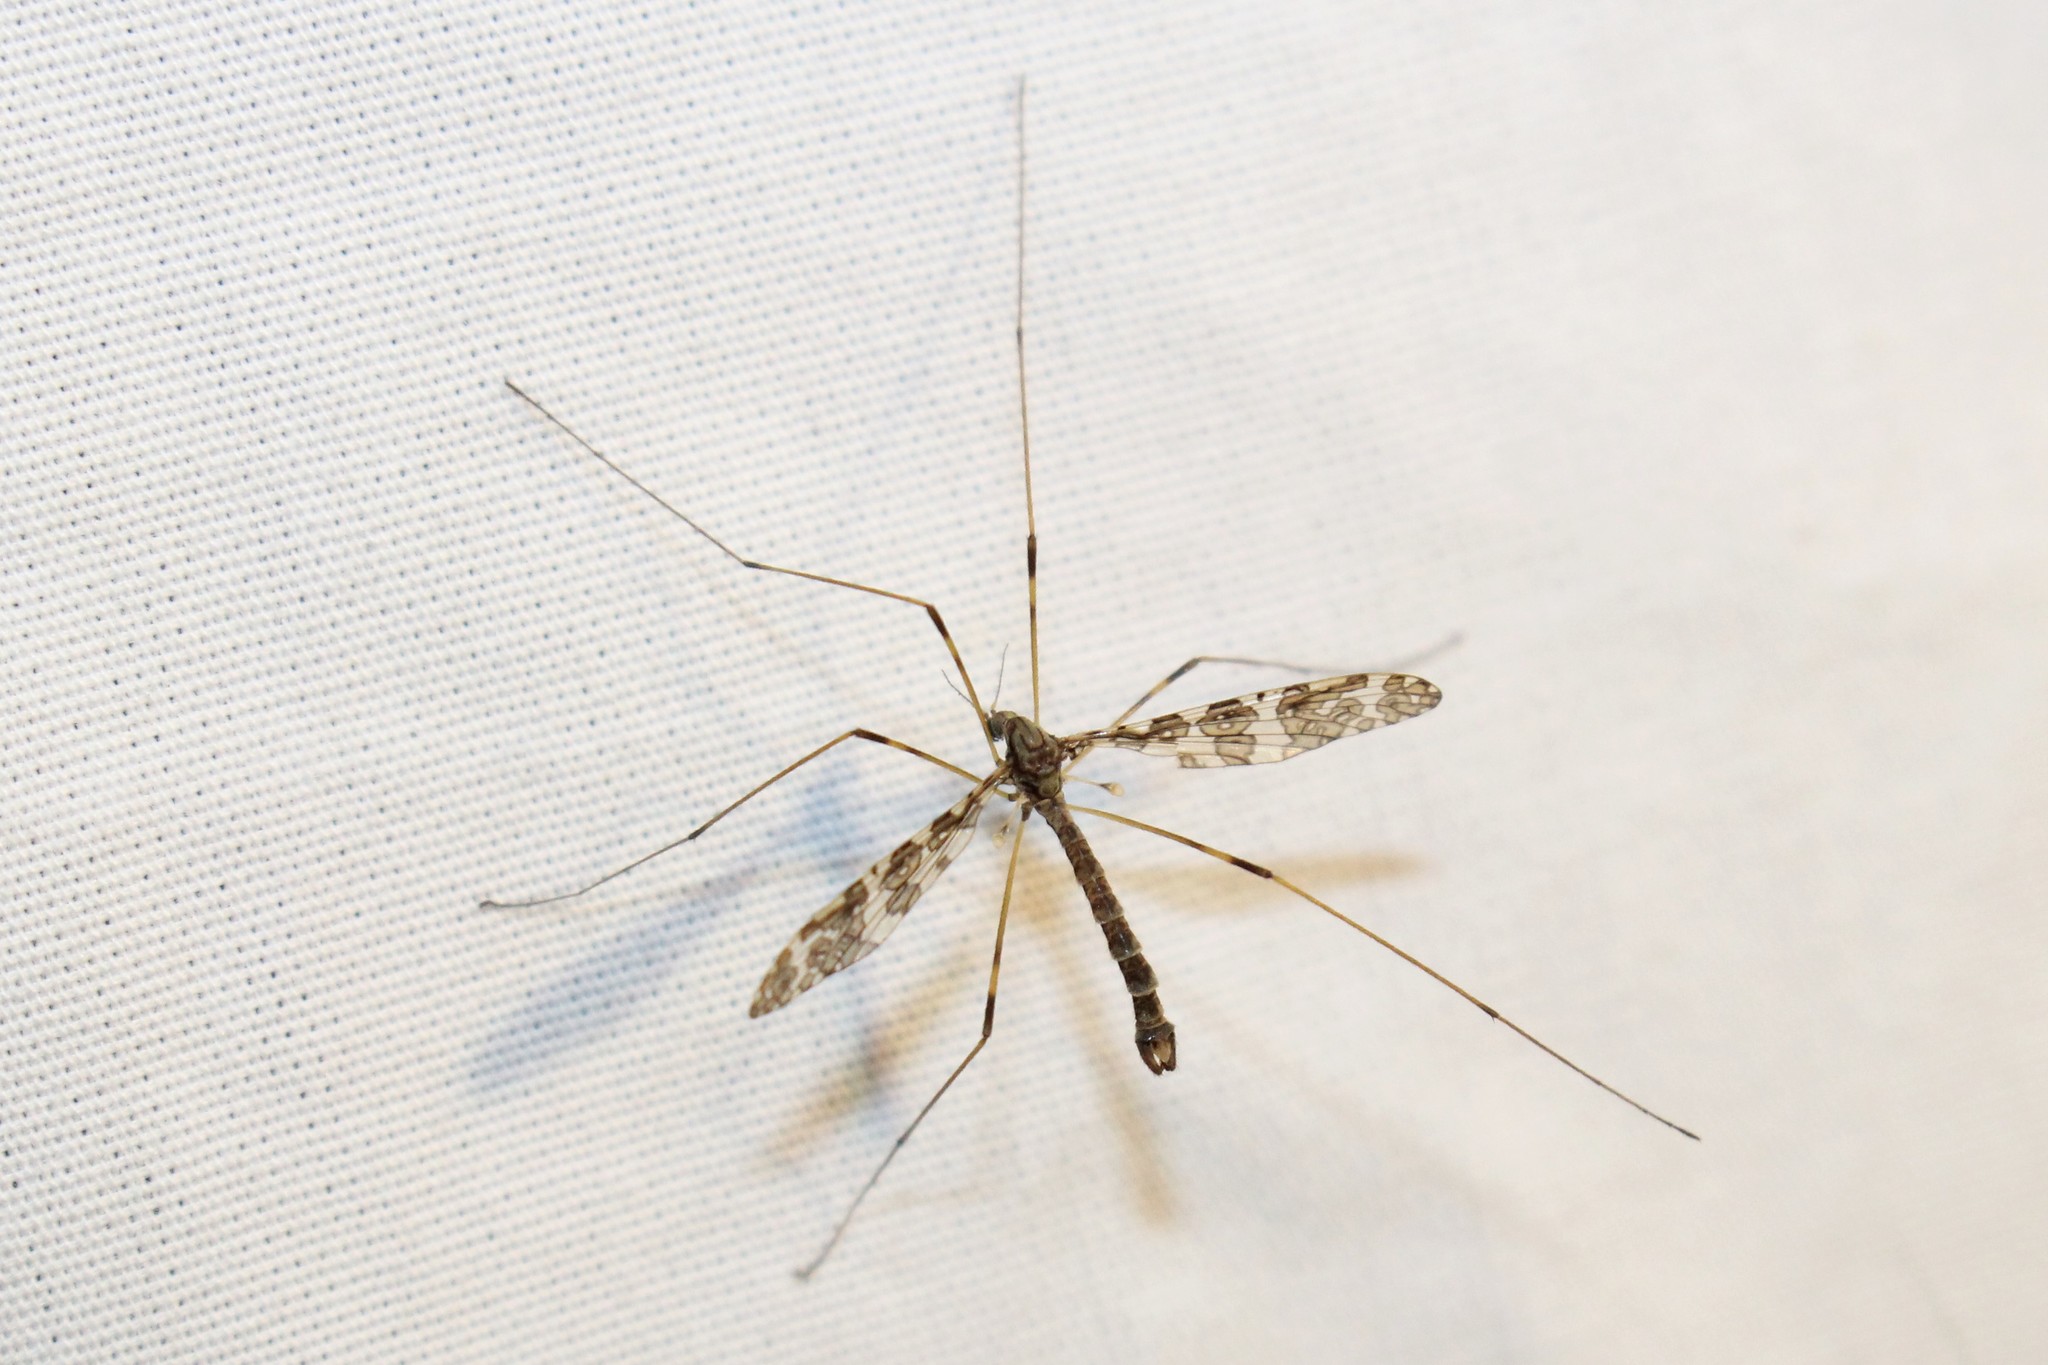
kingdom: Animalia
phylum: Arthropoda
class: Insecta
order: Diptera
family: Limoniidae
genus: Epiphragma
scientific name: Epiphragma fasciapenne
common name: Band-winged crane fly
